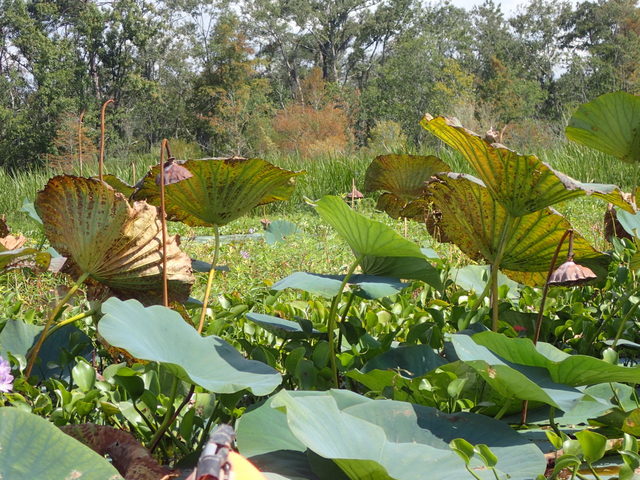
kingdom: Plantae
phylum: Tracheophyta
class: Magnoliopsida
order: Proteales
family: Nelumbonaceae
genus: Nelumbo
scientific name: Nelumbo lutea
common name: American lotus
